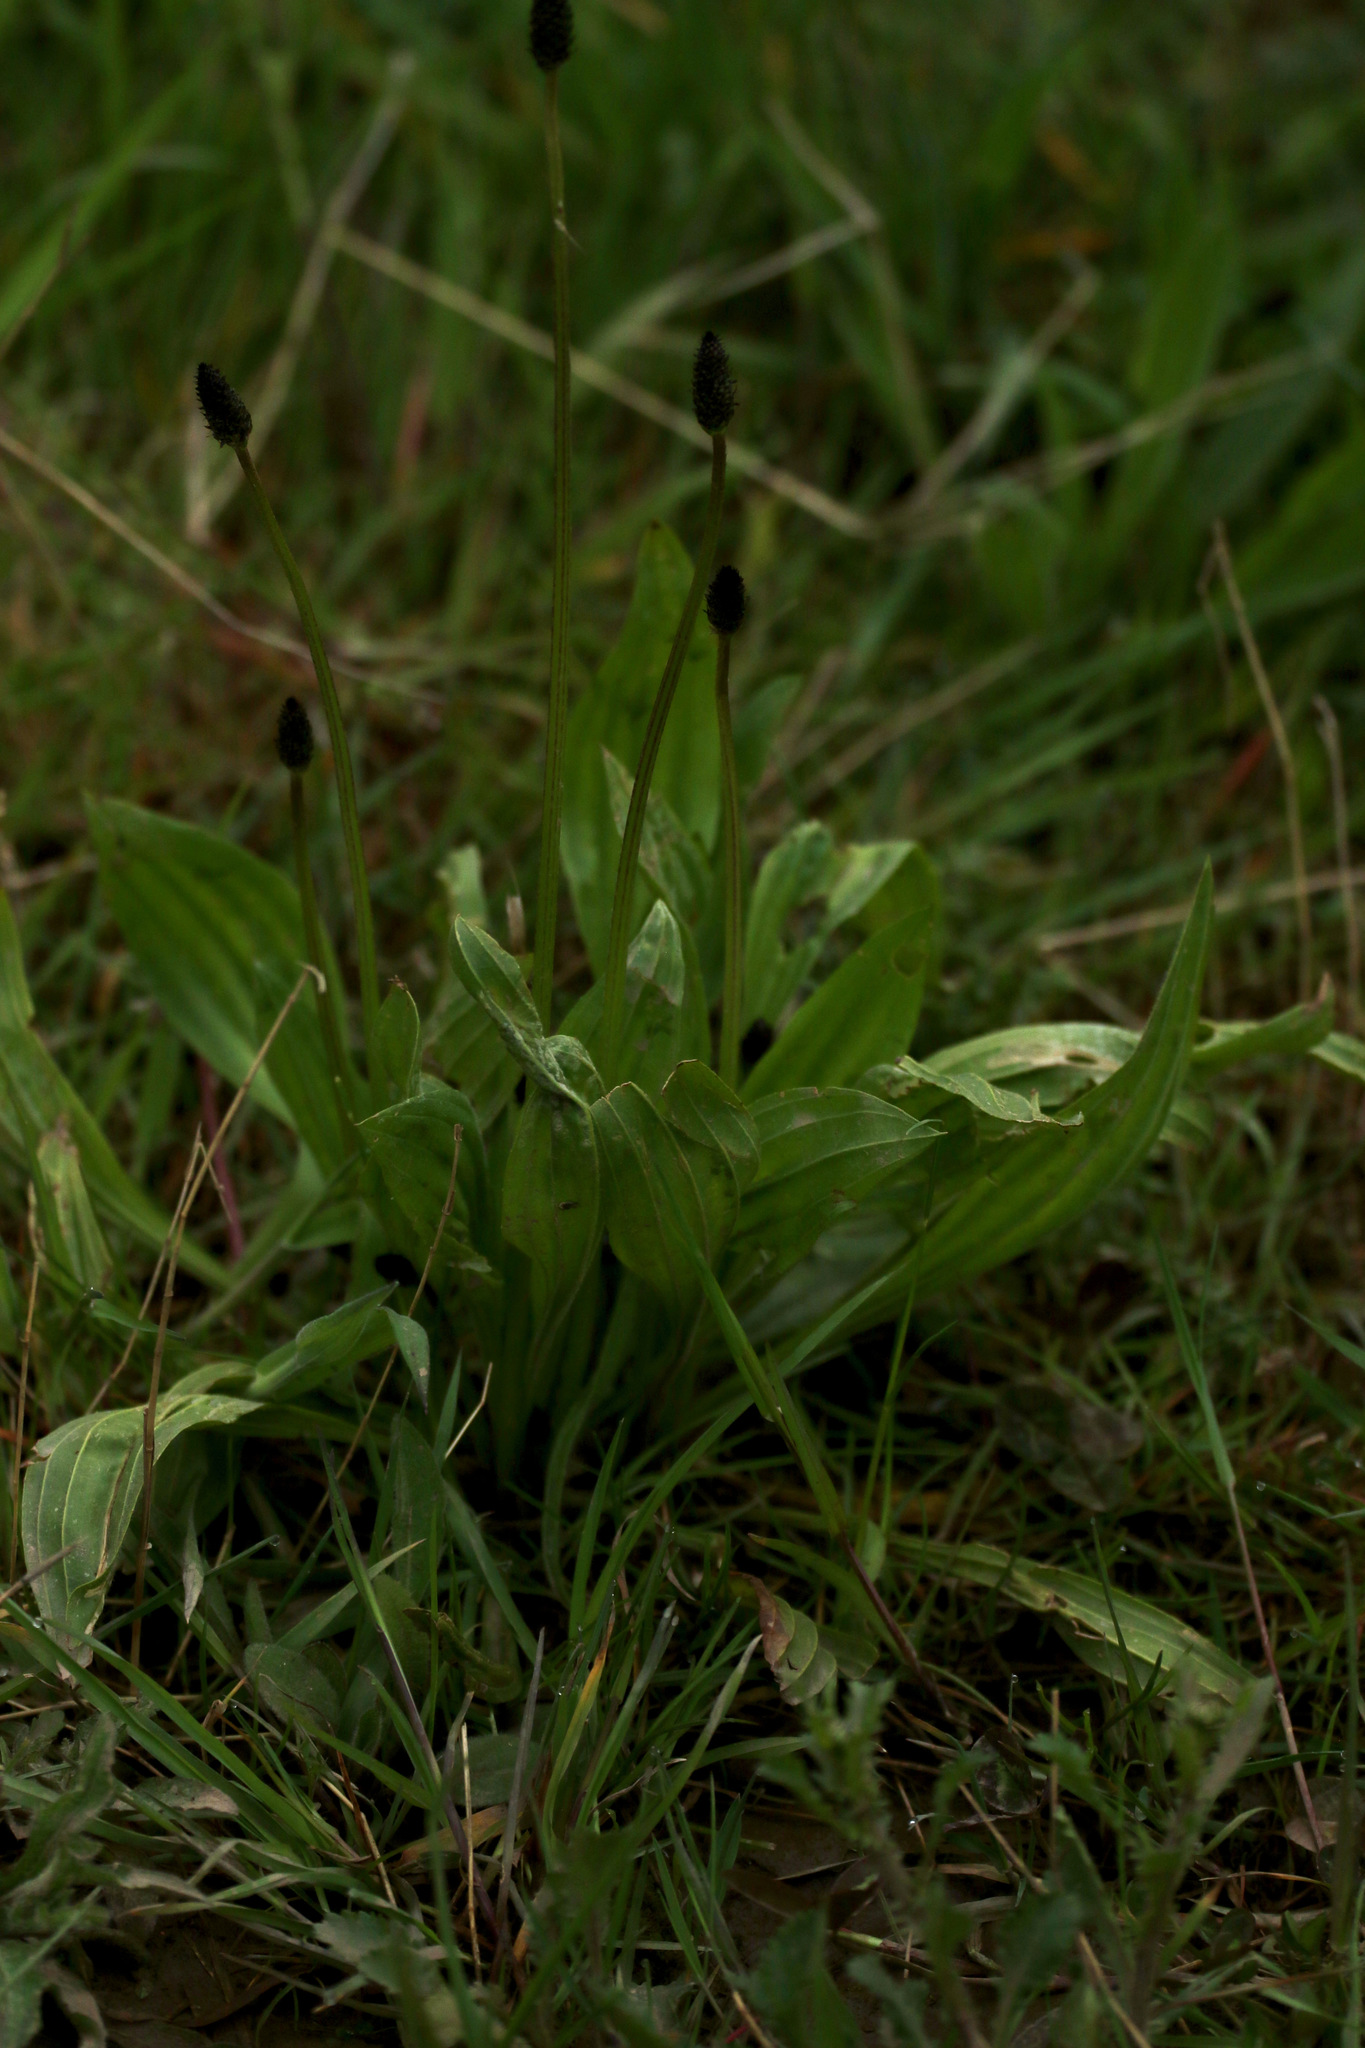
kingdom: Plantae
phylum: Tracheophyta
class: Magnoliopsida
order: Lamiales
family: Plantaginaceae
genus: Plantago
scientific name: Plantago lanceolata
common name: Ribwort plantain
